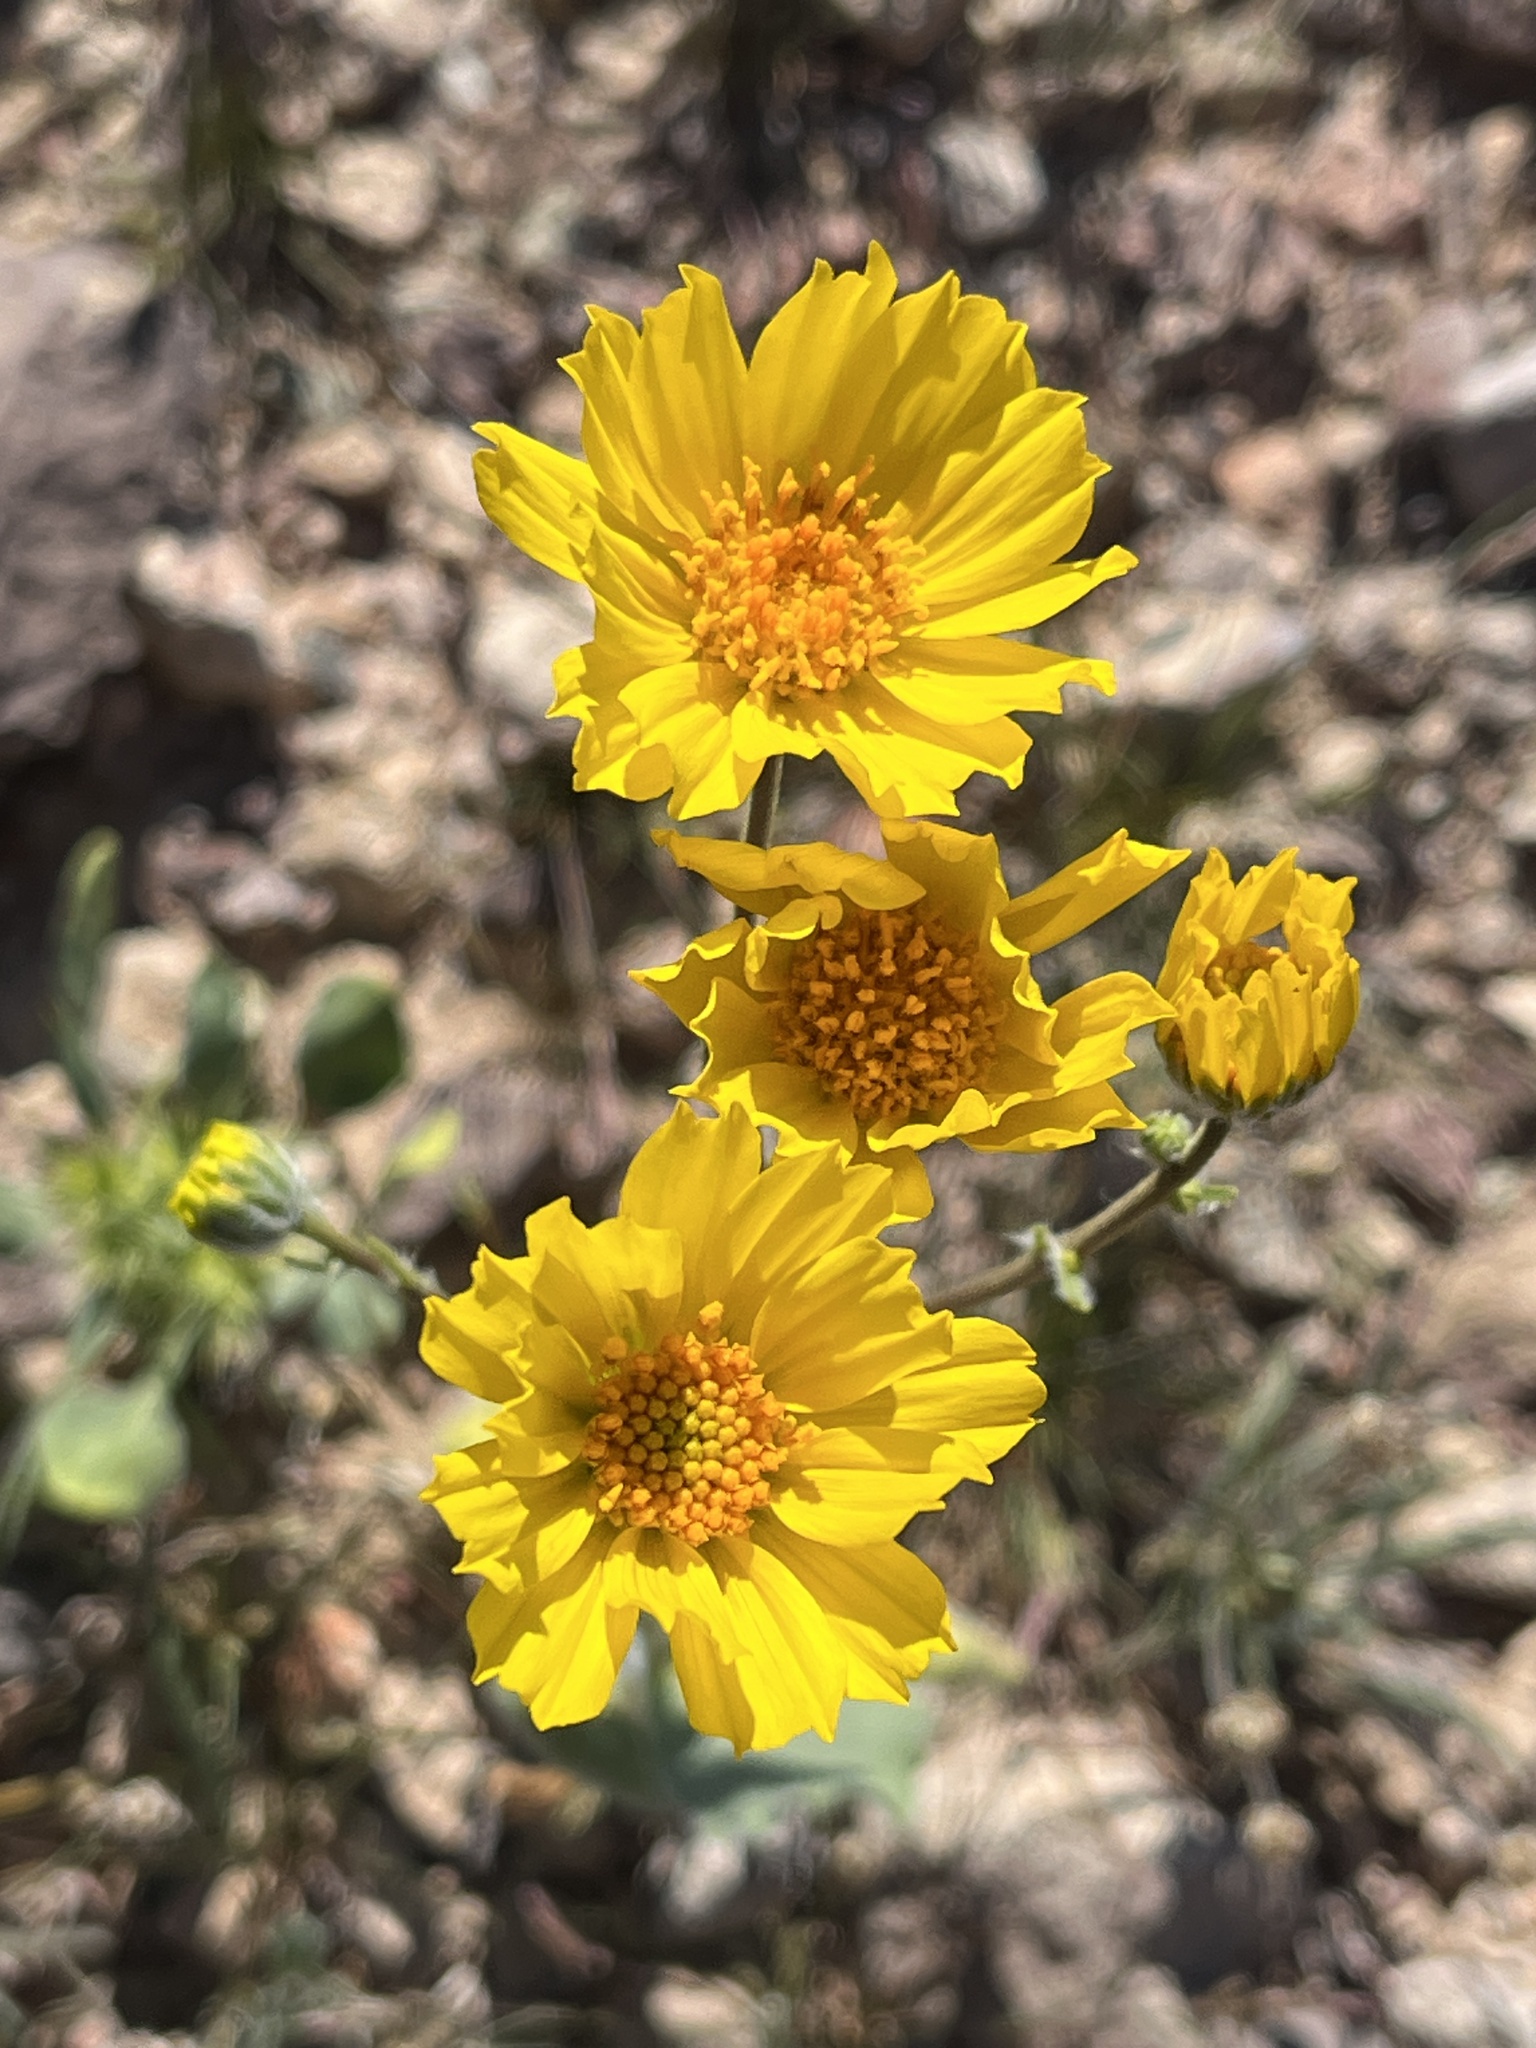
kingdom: Plantae
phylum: Tracheophyta
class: Magnoliopsida
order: Asterales
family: Asteraceae
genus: Geraea
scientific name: Geraea canescens
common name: Desert-gold
